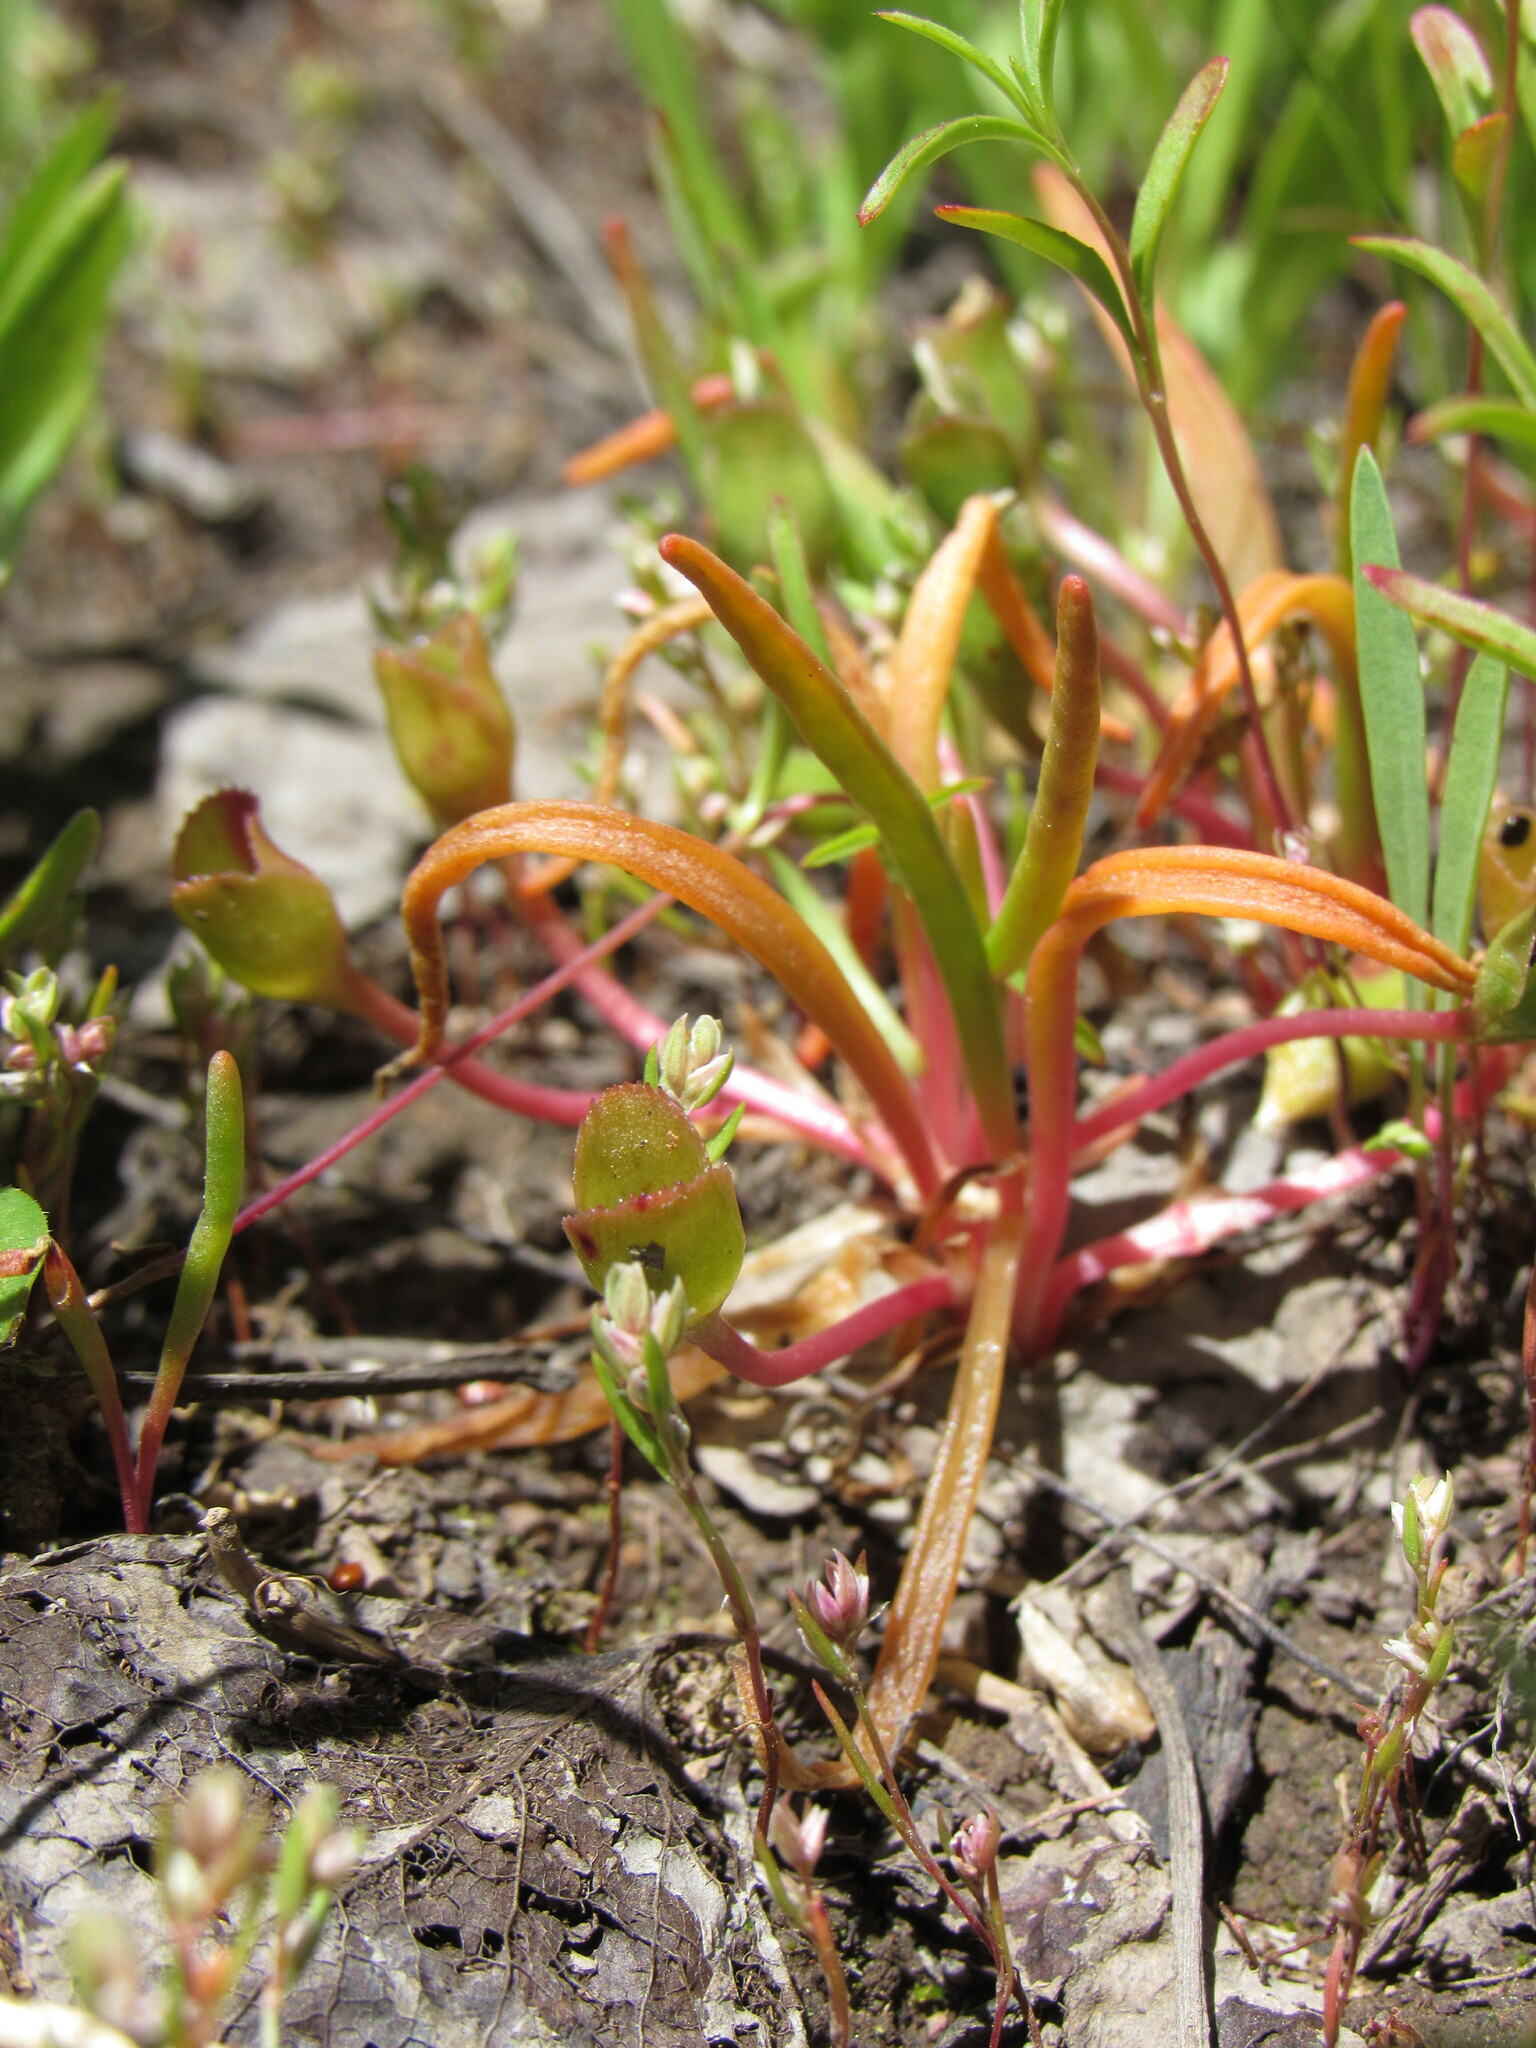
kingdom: Plantae
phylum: Tracheophyta
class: Magnoliopsida
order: Caryophyllales
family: Montiaceae
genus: Lewisia
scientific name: Lewisia pygmaea
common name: Alpine bitterroot
